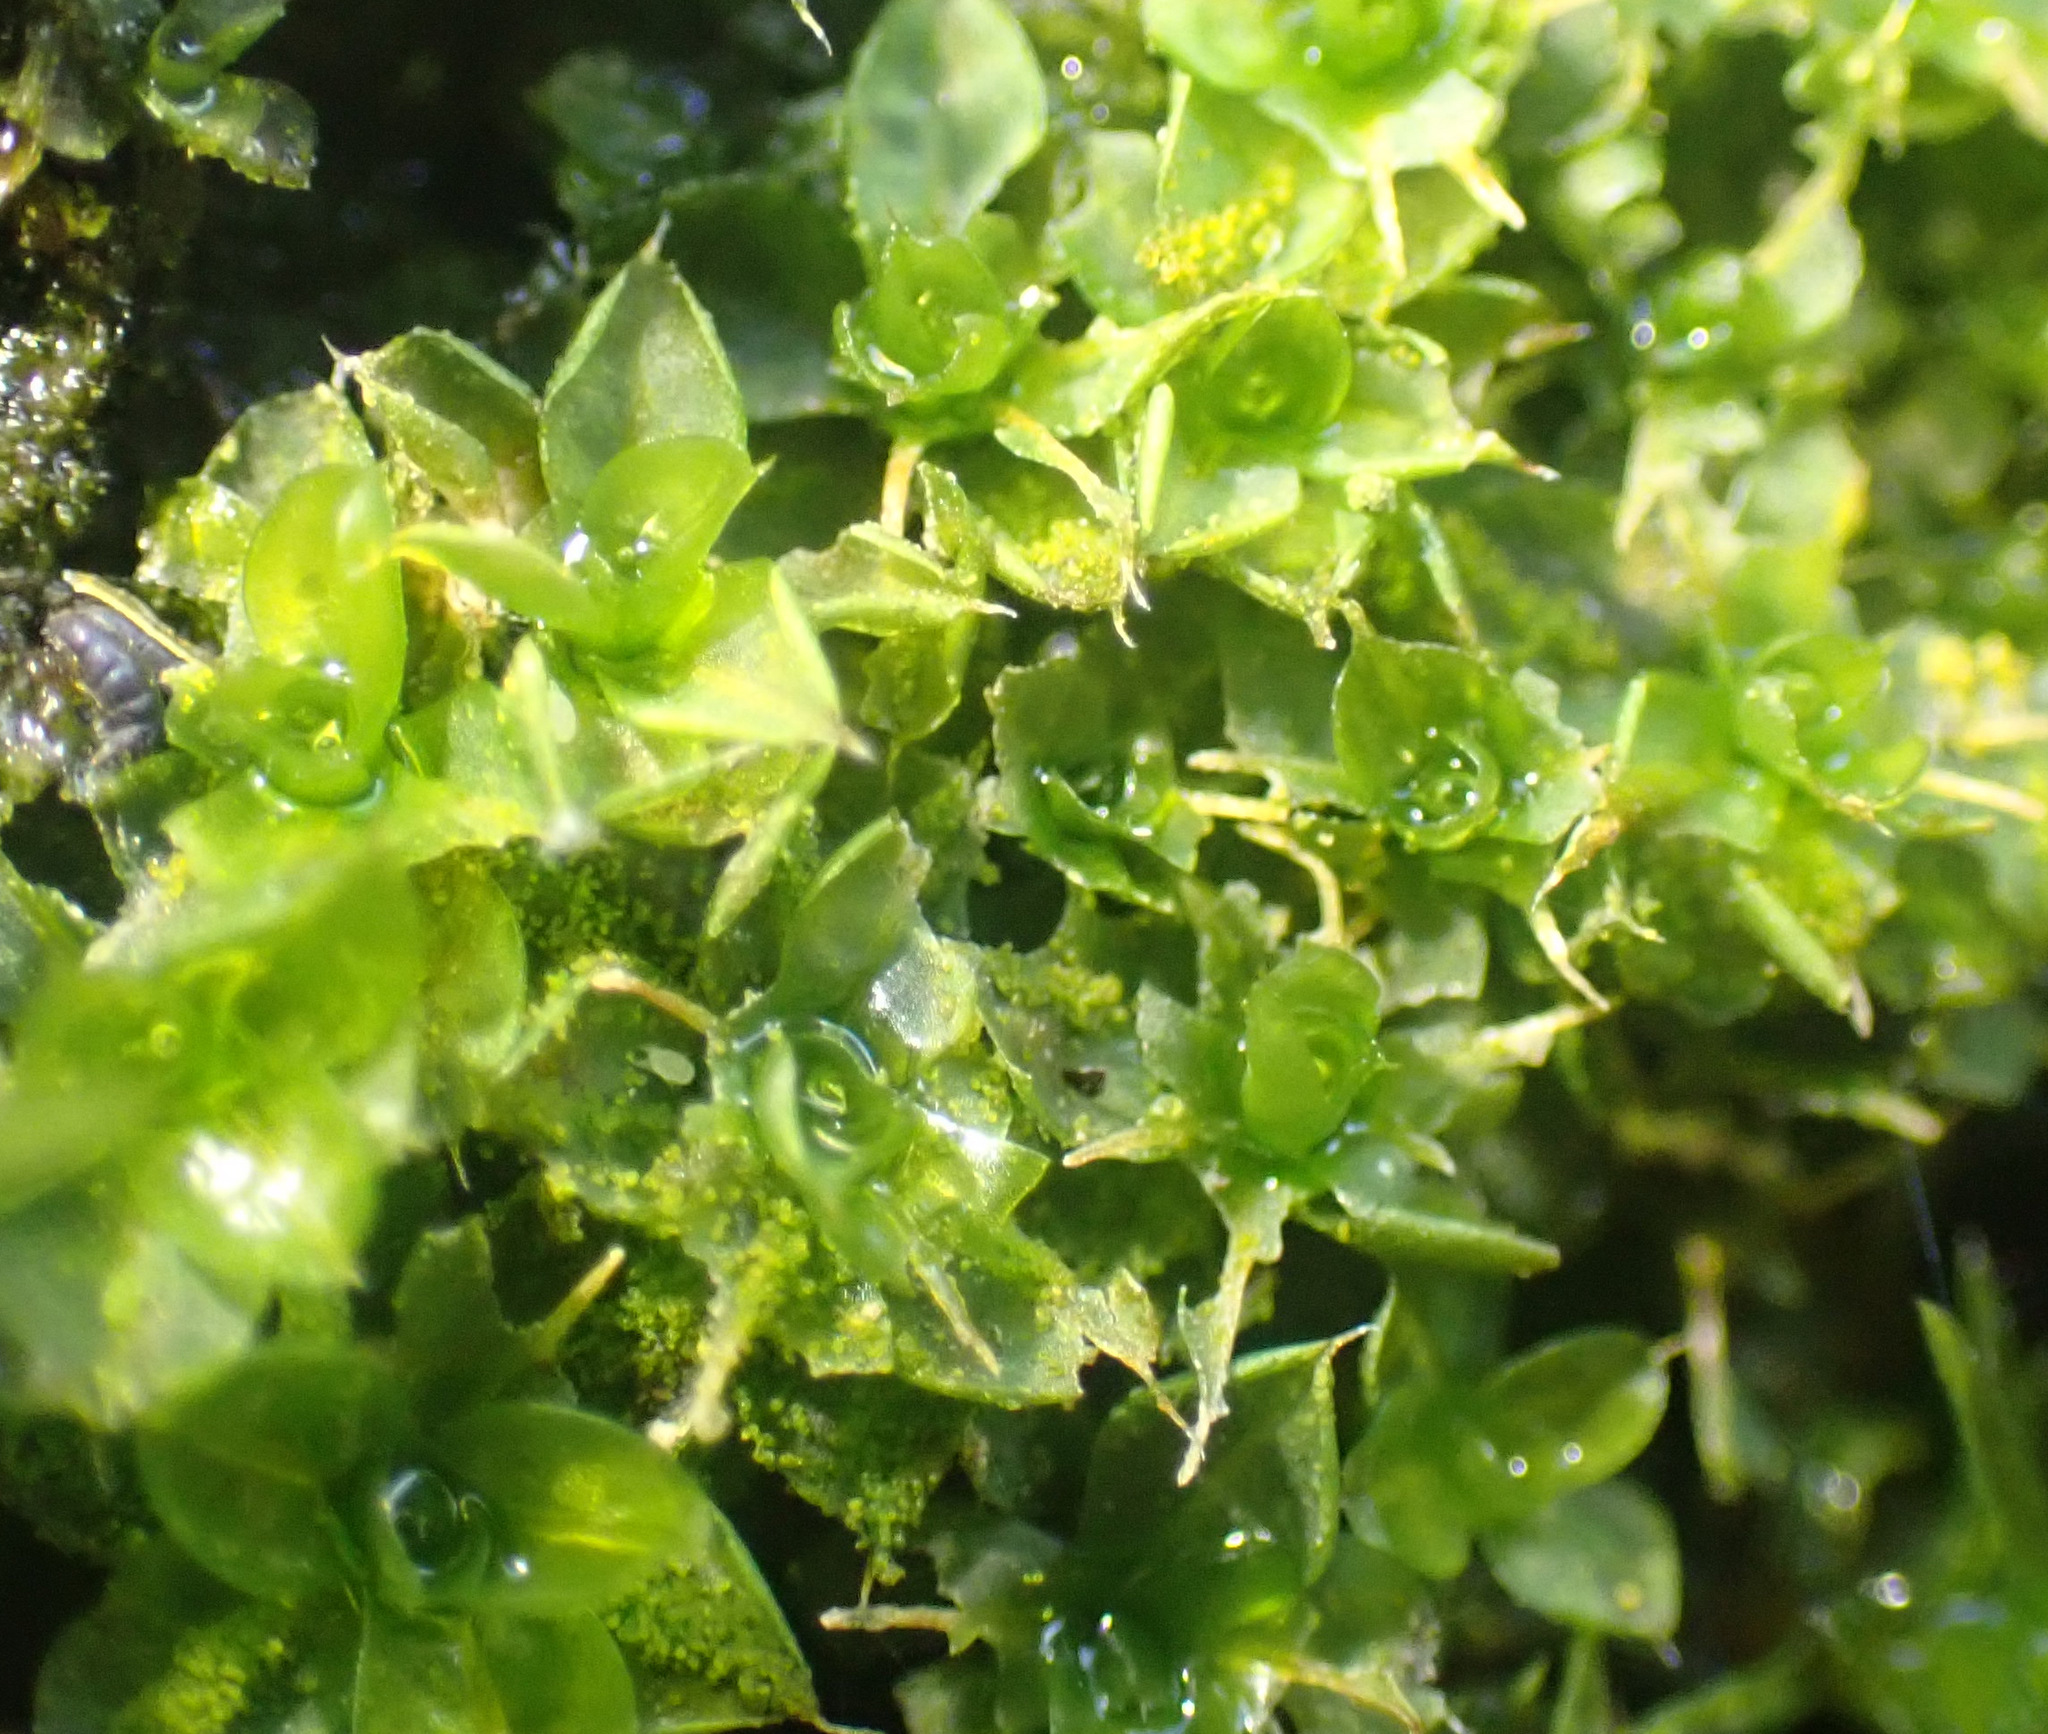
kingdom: Plantae
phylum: Bryophyta
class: Bryopsida
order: Pottiales
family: Pottiaceae
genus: Syntrichia
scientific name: Syntrichia papillosa
